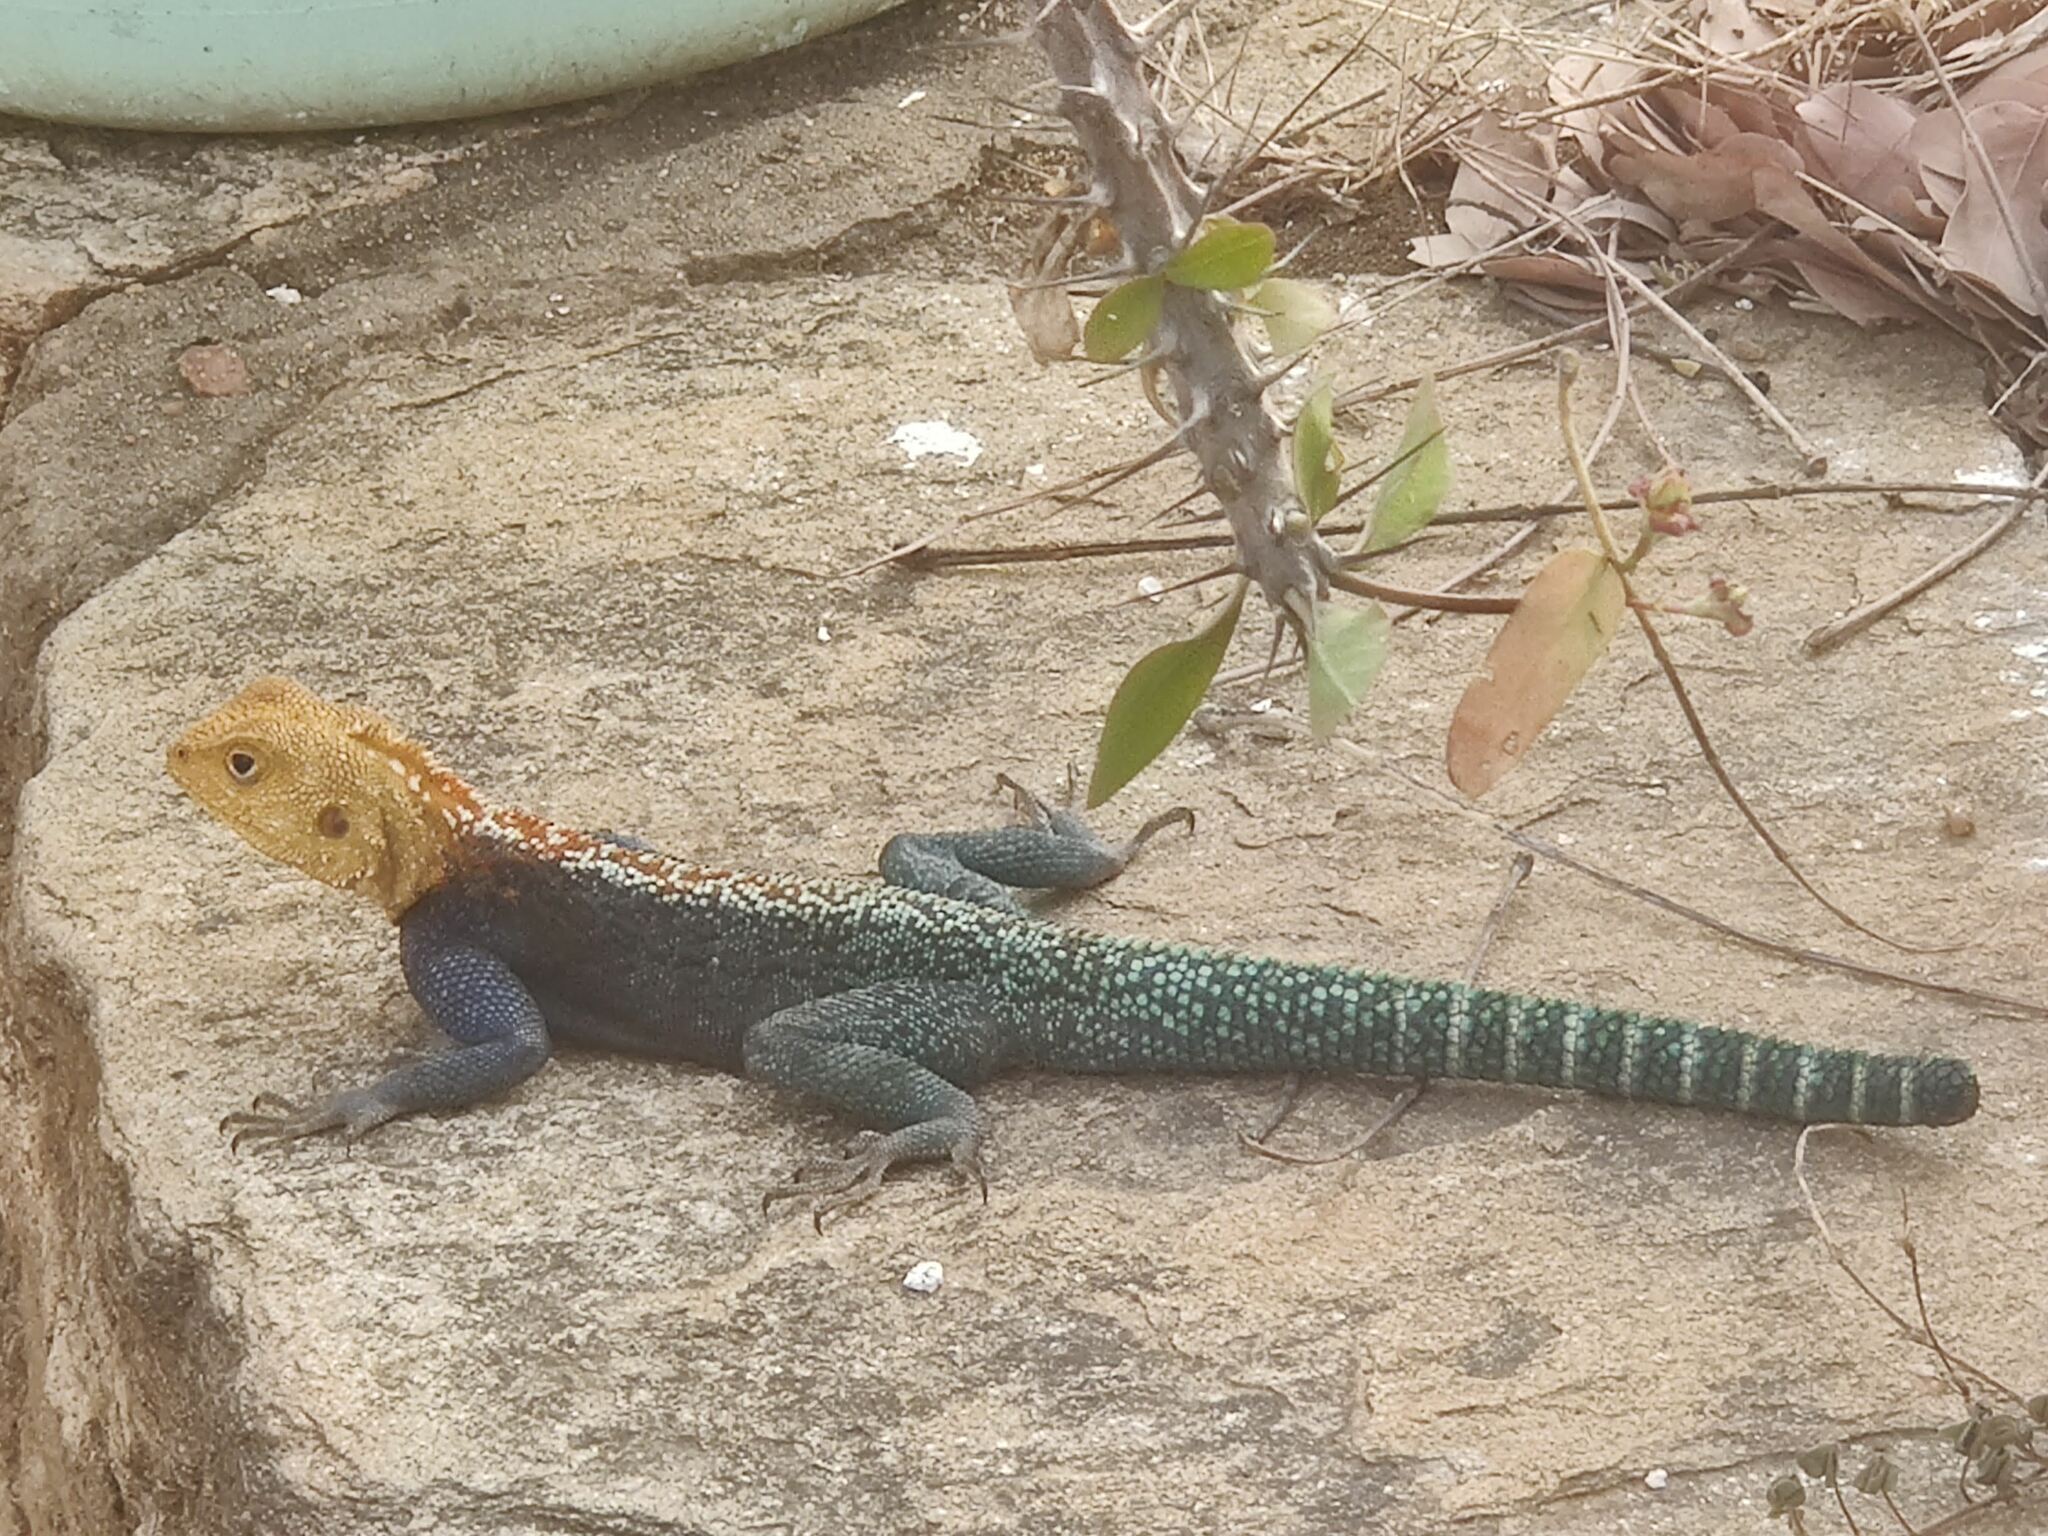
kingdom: Animalia
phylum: Chordata
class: Squamata
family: Agamidae
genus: Agama
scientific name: Agama kirkii
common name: Kirk's rock agama
